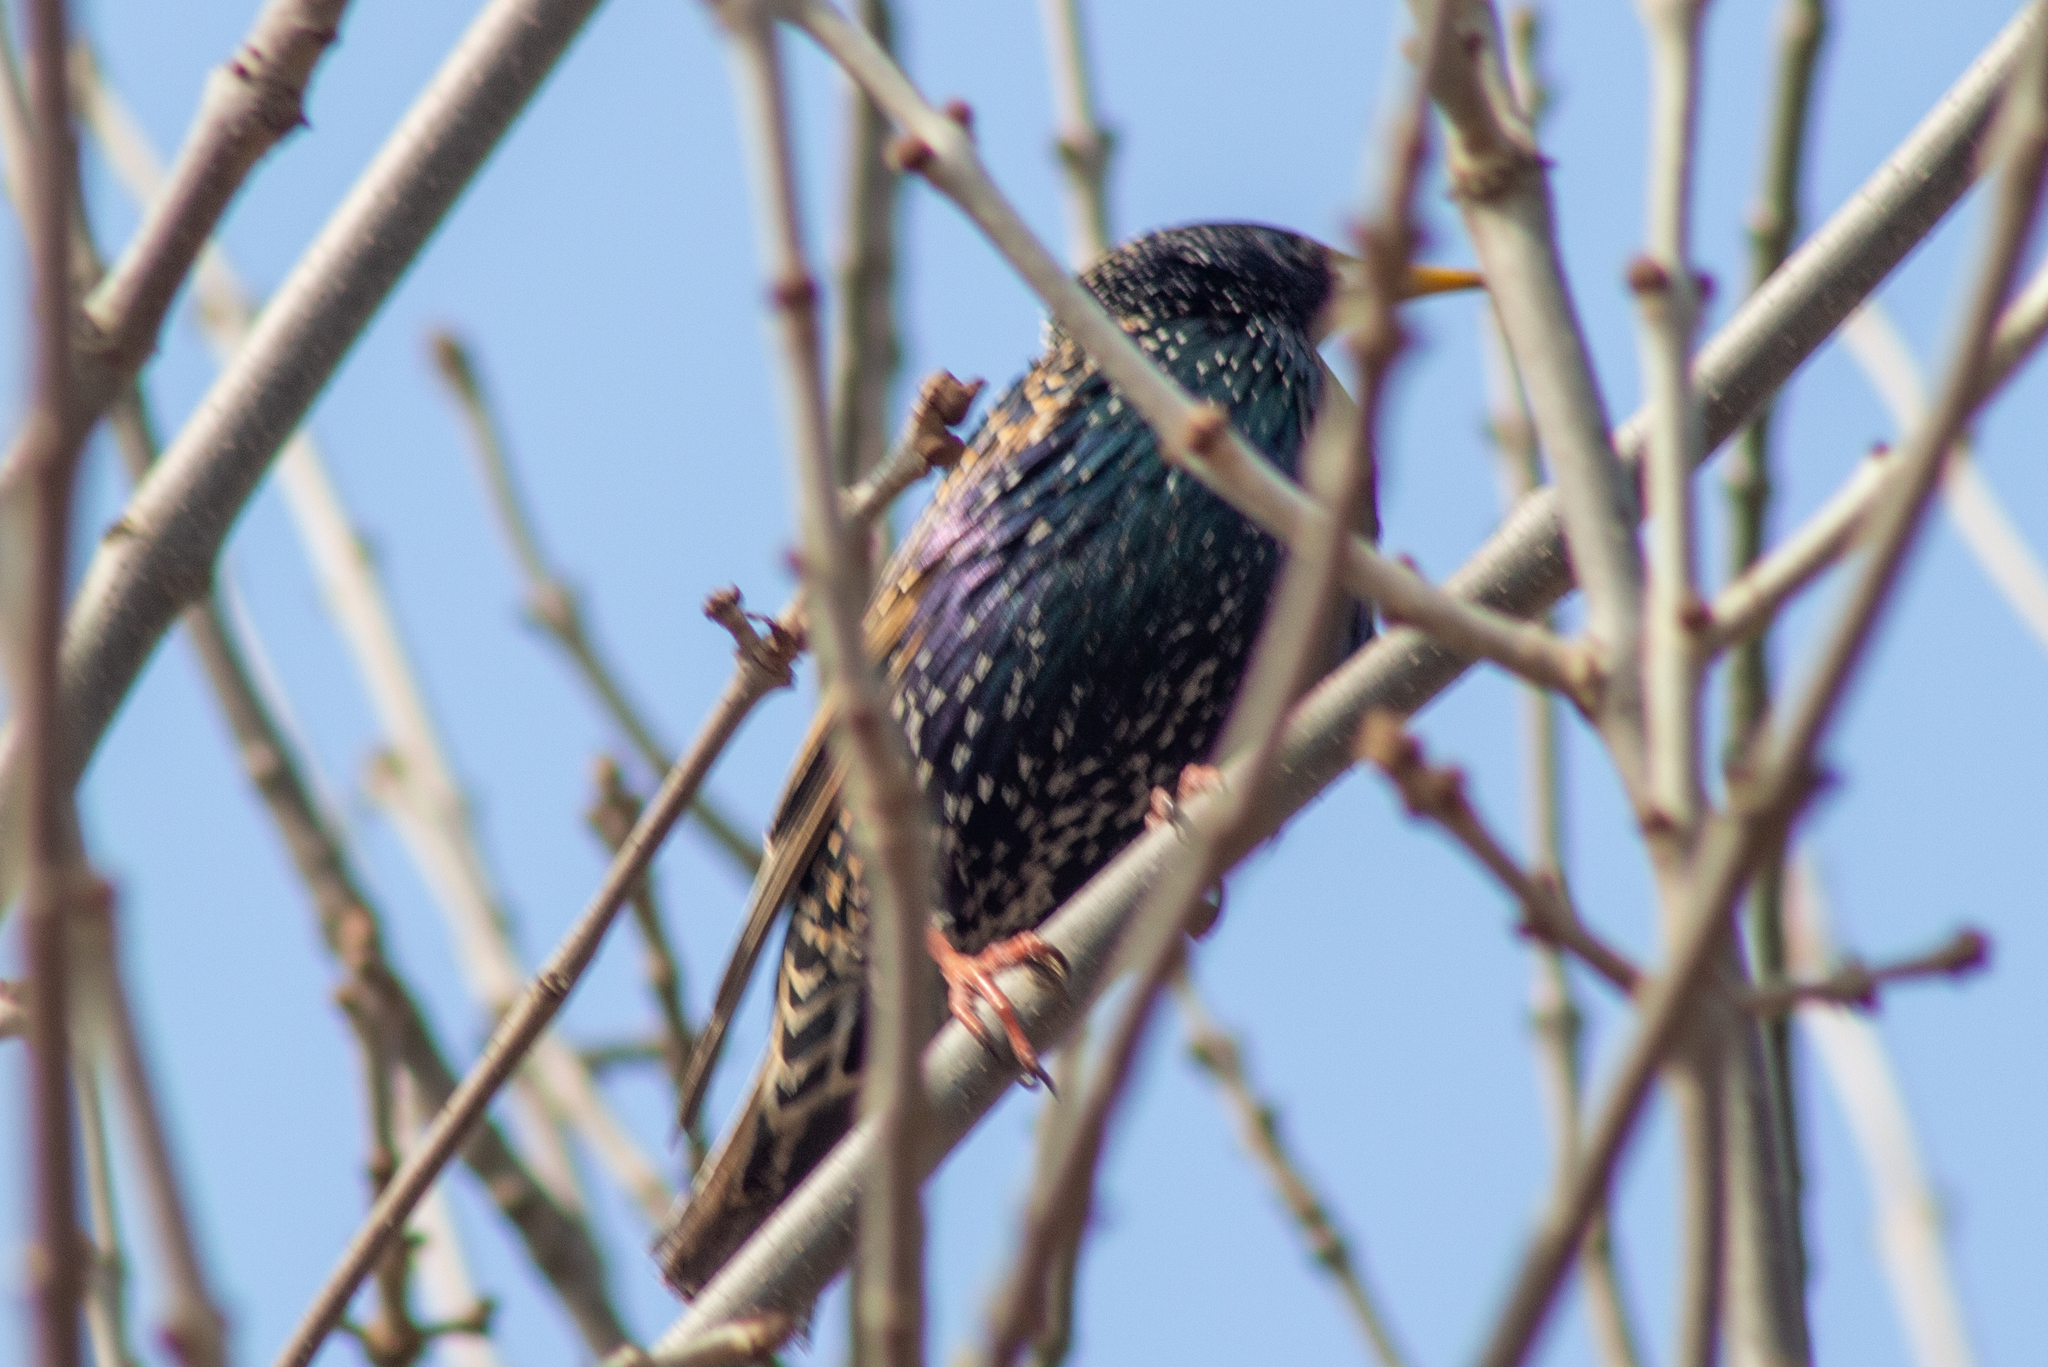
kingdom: Animalia
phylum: Chordata
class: Aves
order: Passeriformes
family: Sturnidae
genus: Sturnus
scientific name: Sturnus vulgaris
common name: Common starling
